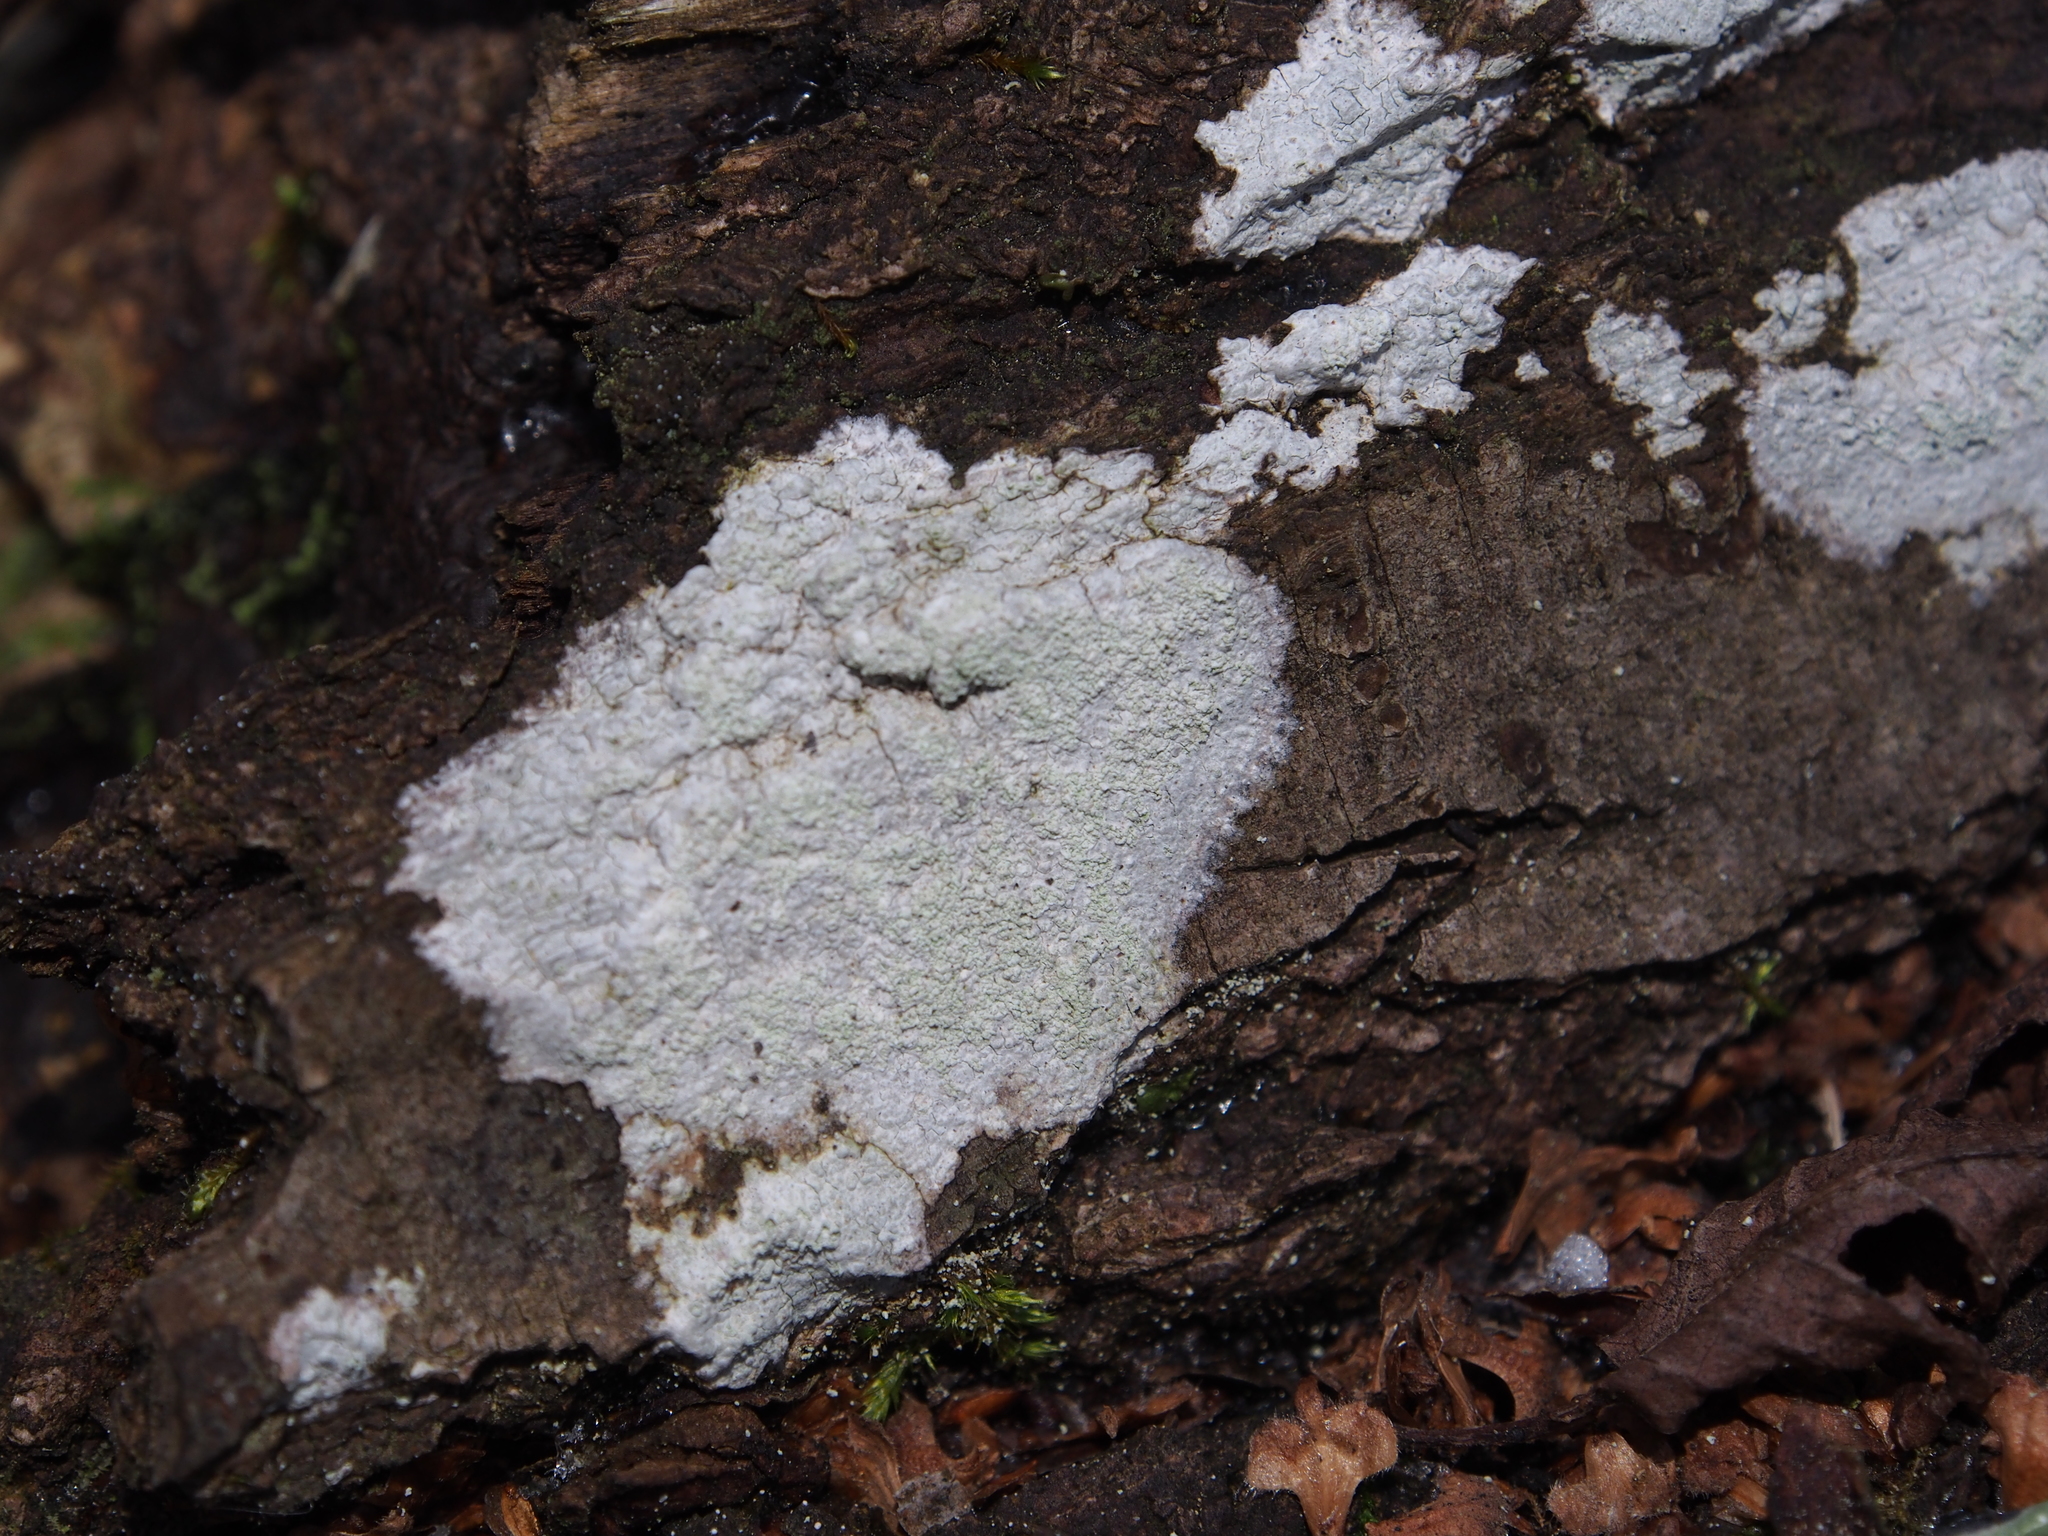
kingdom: Fungi
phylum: Ascomycota
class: Lecanoromycetes
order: Ostropales
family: Phlyctidaceae
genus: Phlyctis
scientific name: Phlyctis argena
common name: Whitewash lichen
